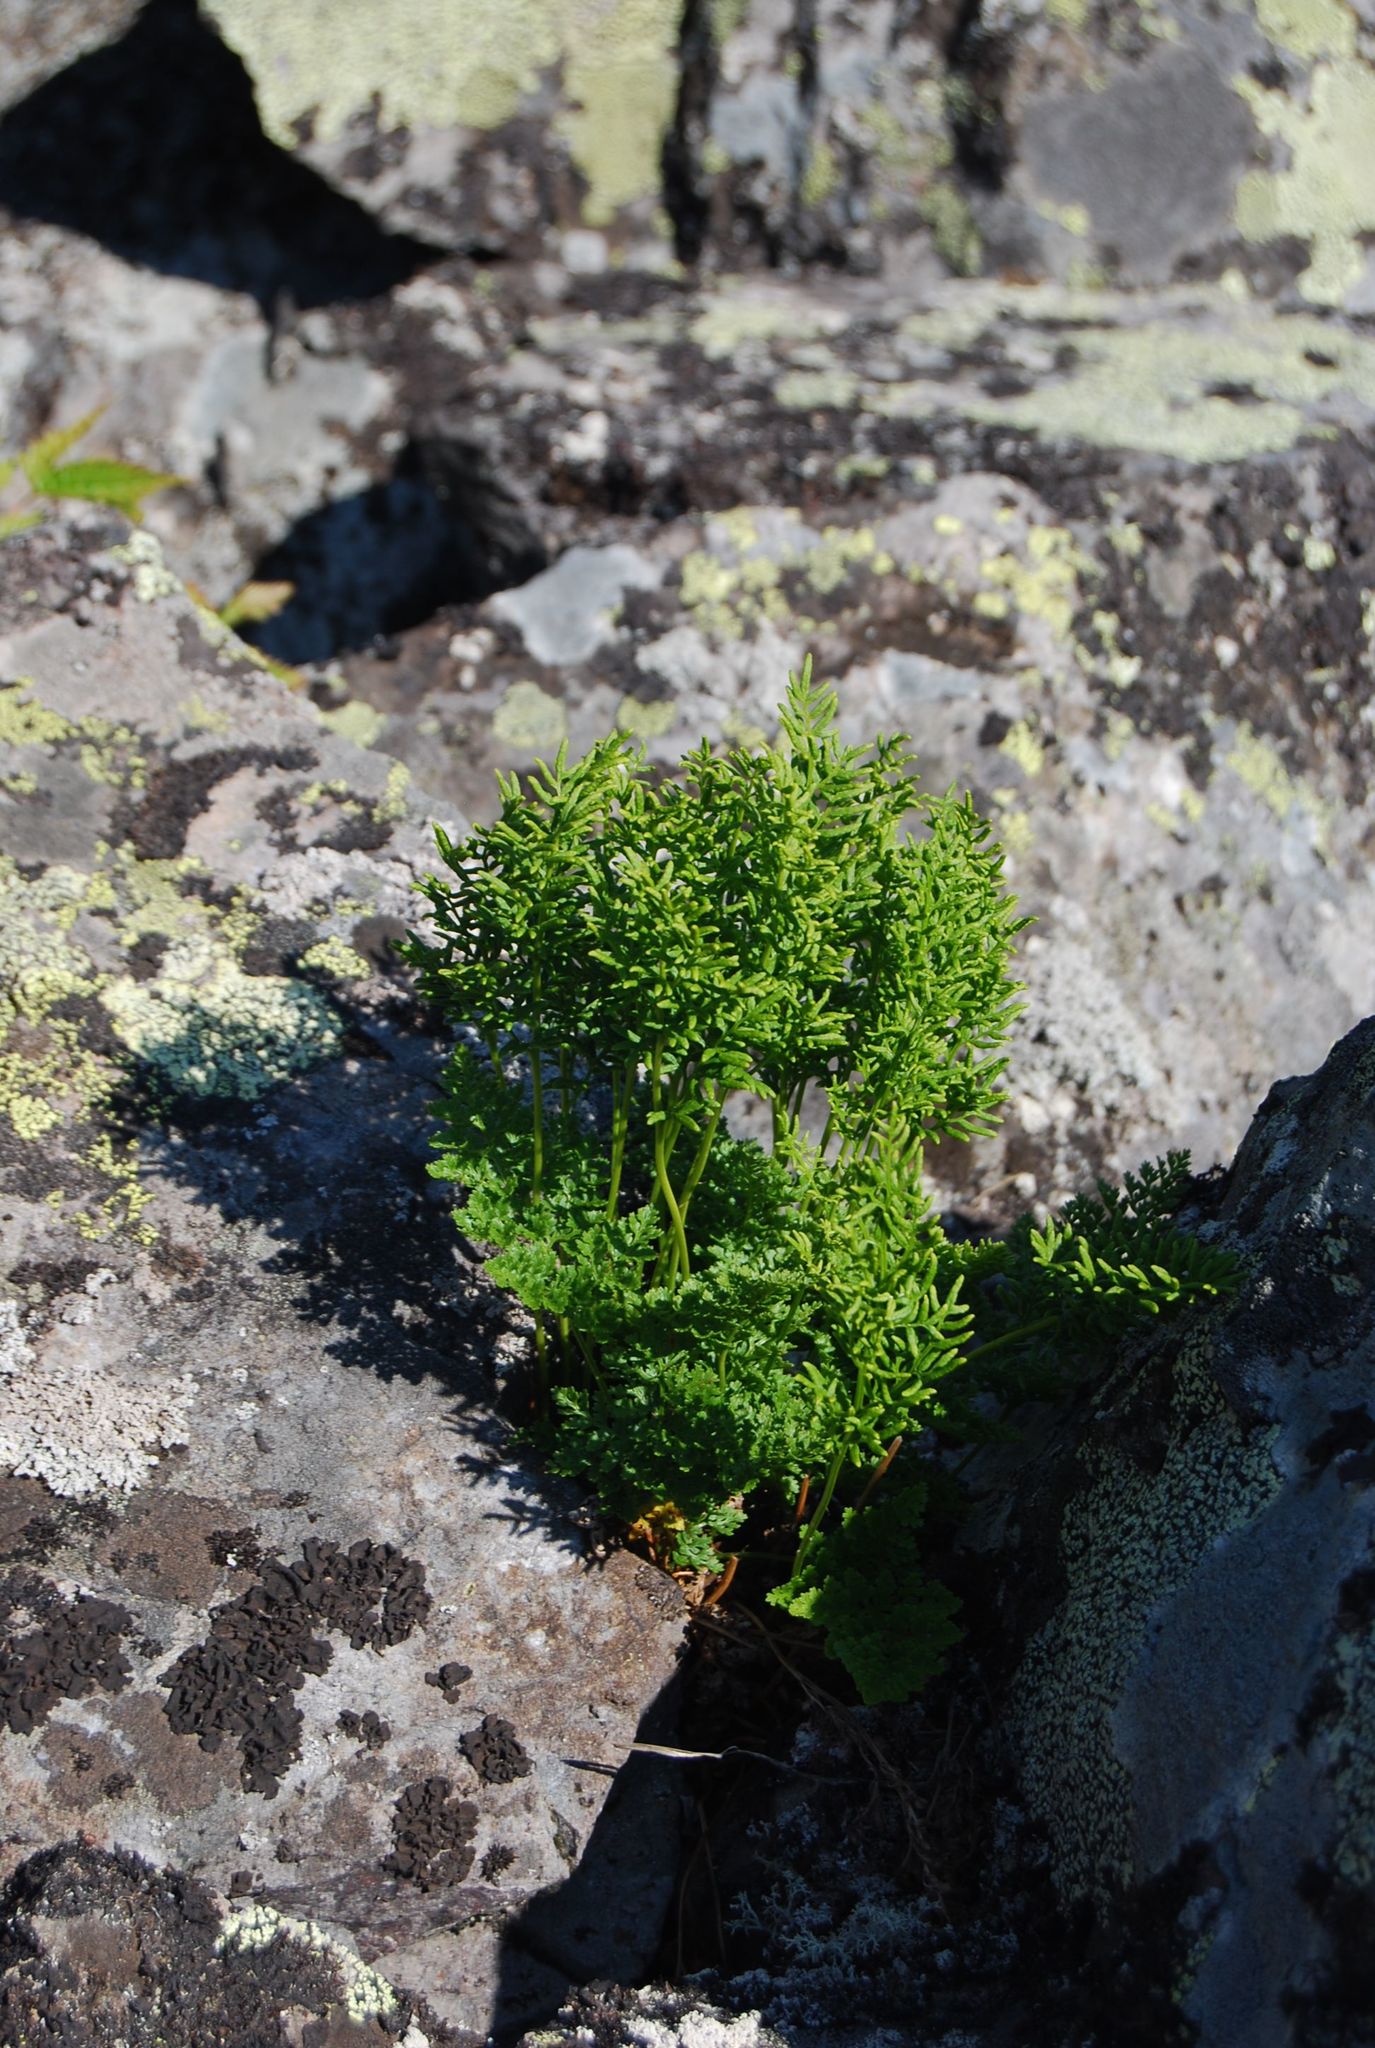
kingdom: Plantae
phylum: Tracheophyta
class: Polypodiopsida
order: Polypodiales
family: Pteridaceae
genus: Cryptogramma
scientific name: Cryptogramma acrostichoides
